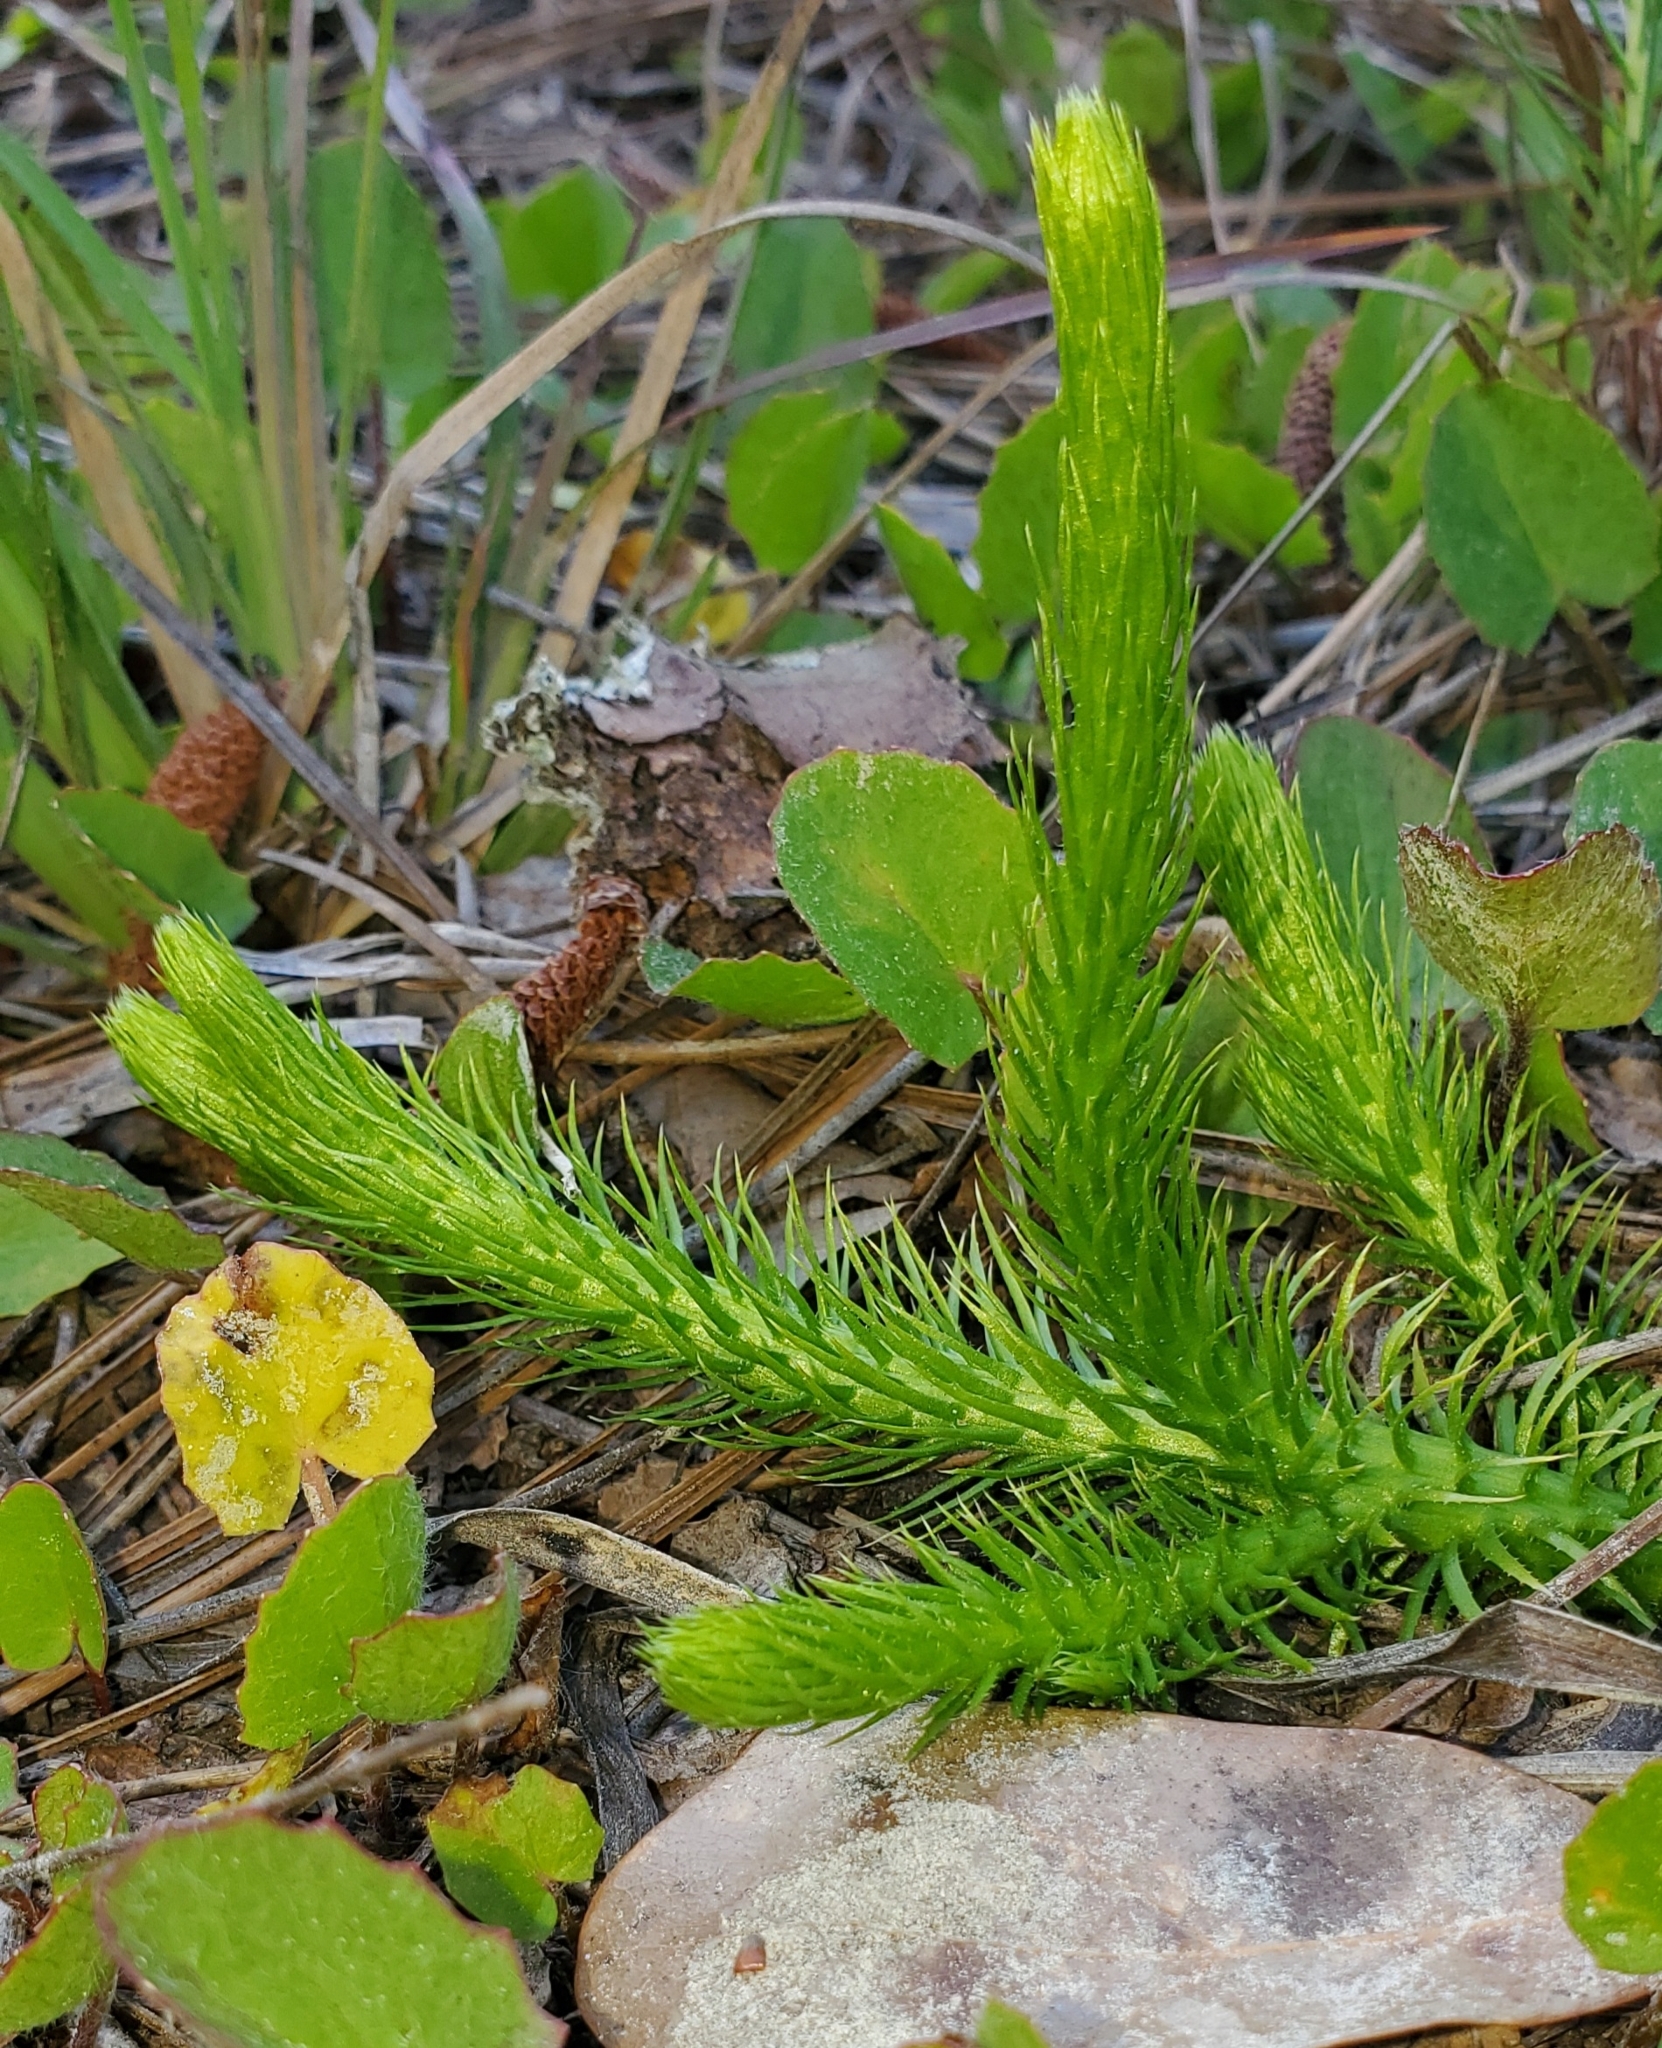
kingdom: Plantae
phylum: Tracheophyta
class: Lycopodiopsida
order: Lycopodiales
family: Lycopodiaceae
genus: Lycopodiella
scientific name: Lycopodiella alopecuroides
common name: Foxtail clubmoss
